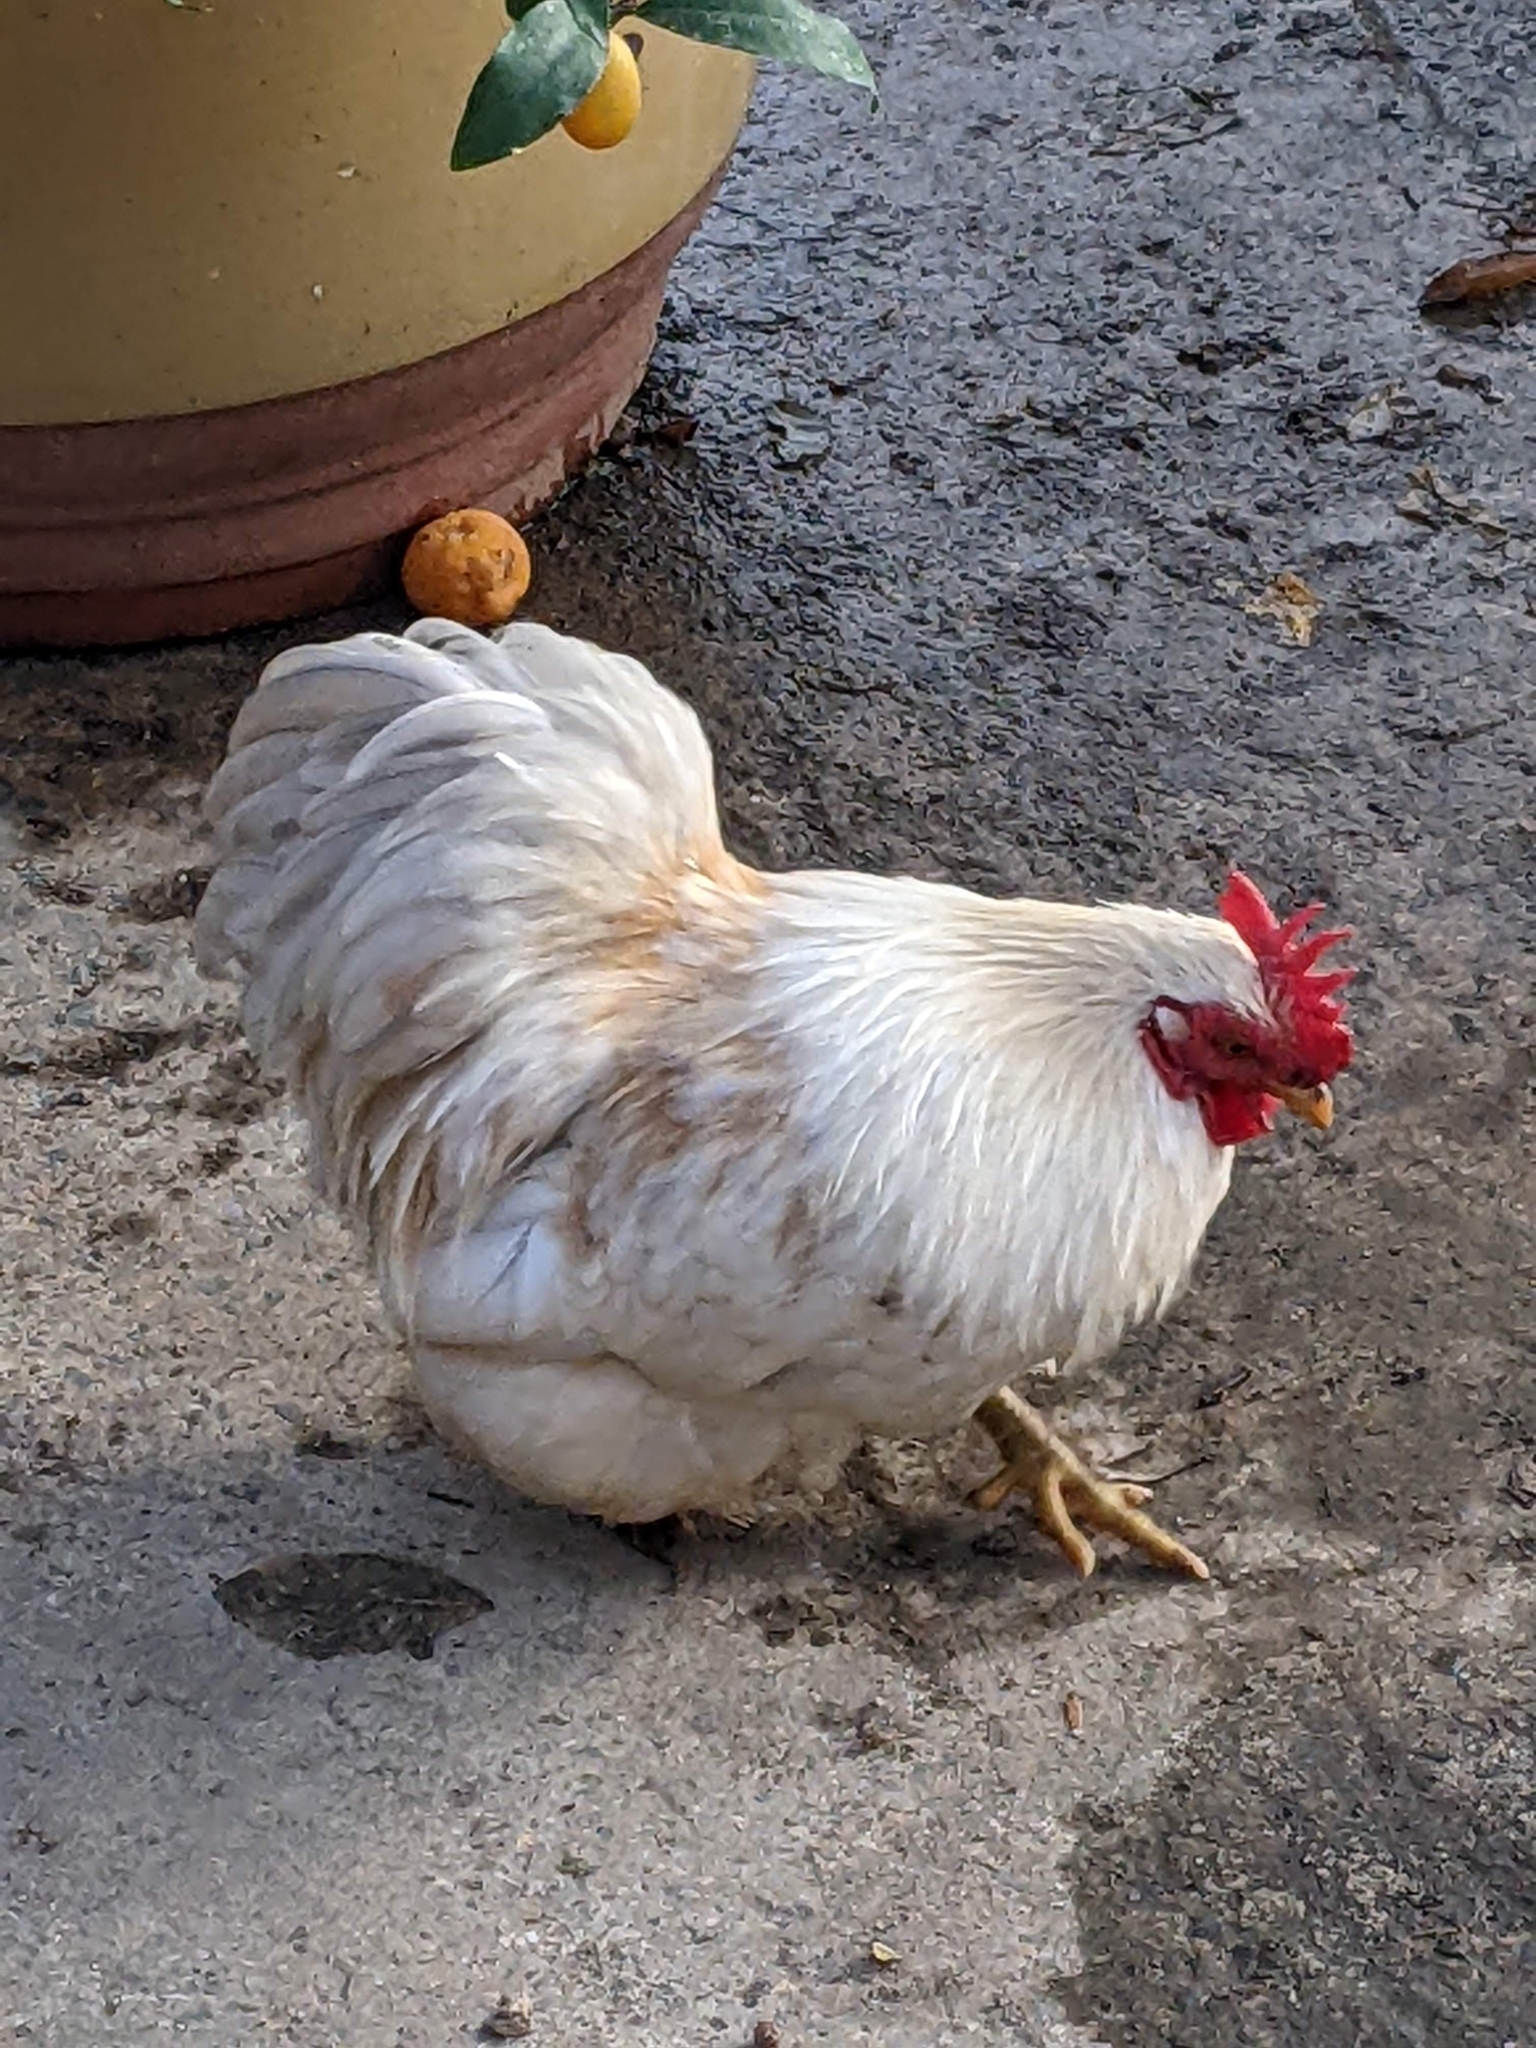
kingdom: Animalia
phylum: Chordata
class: Aves
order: Galliformes
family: Phasianidae
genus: Gallus
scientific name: Gallus gallus
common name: Red junglefowl
